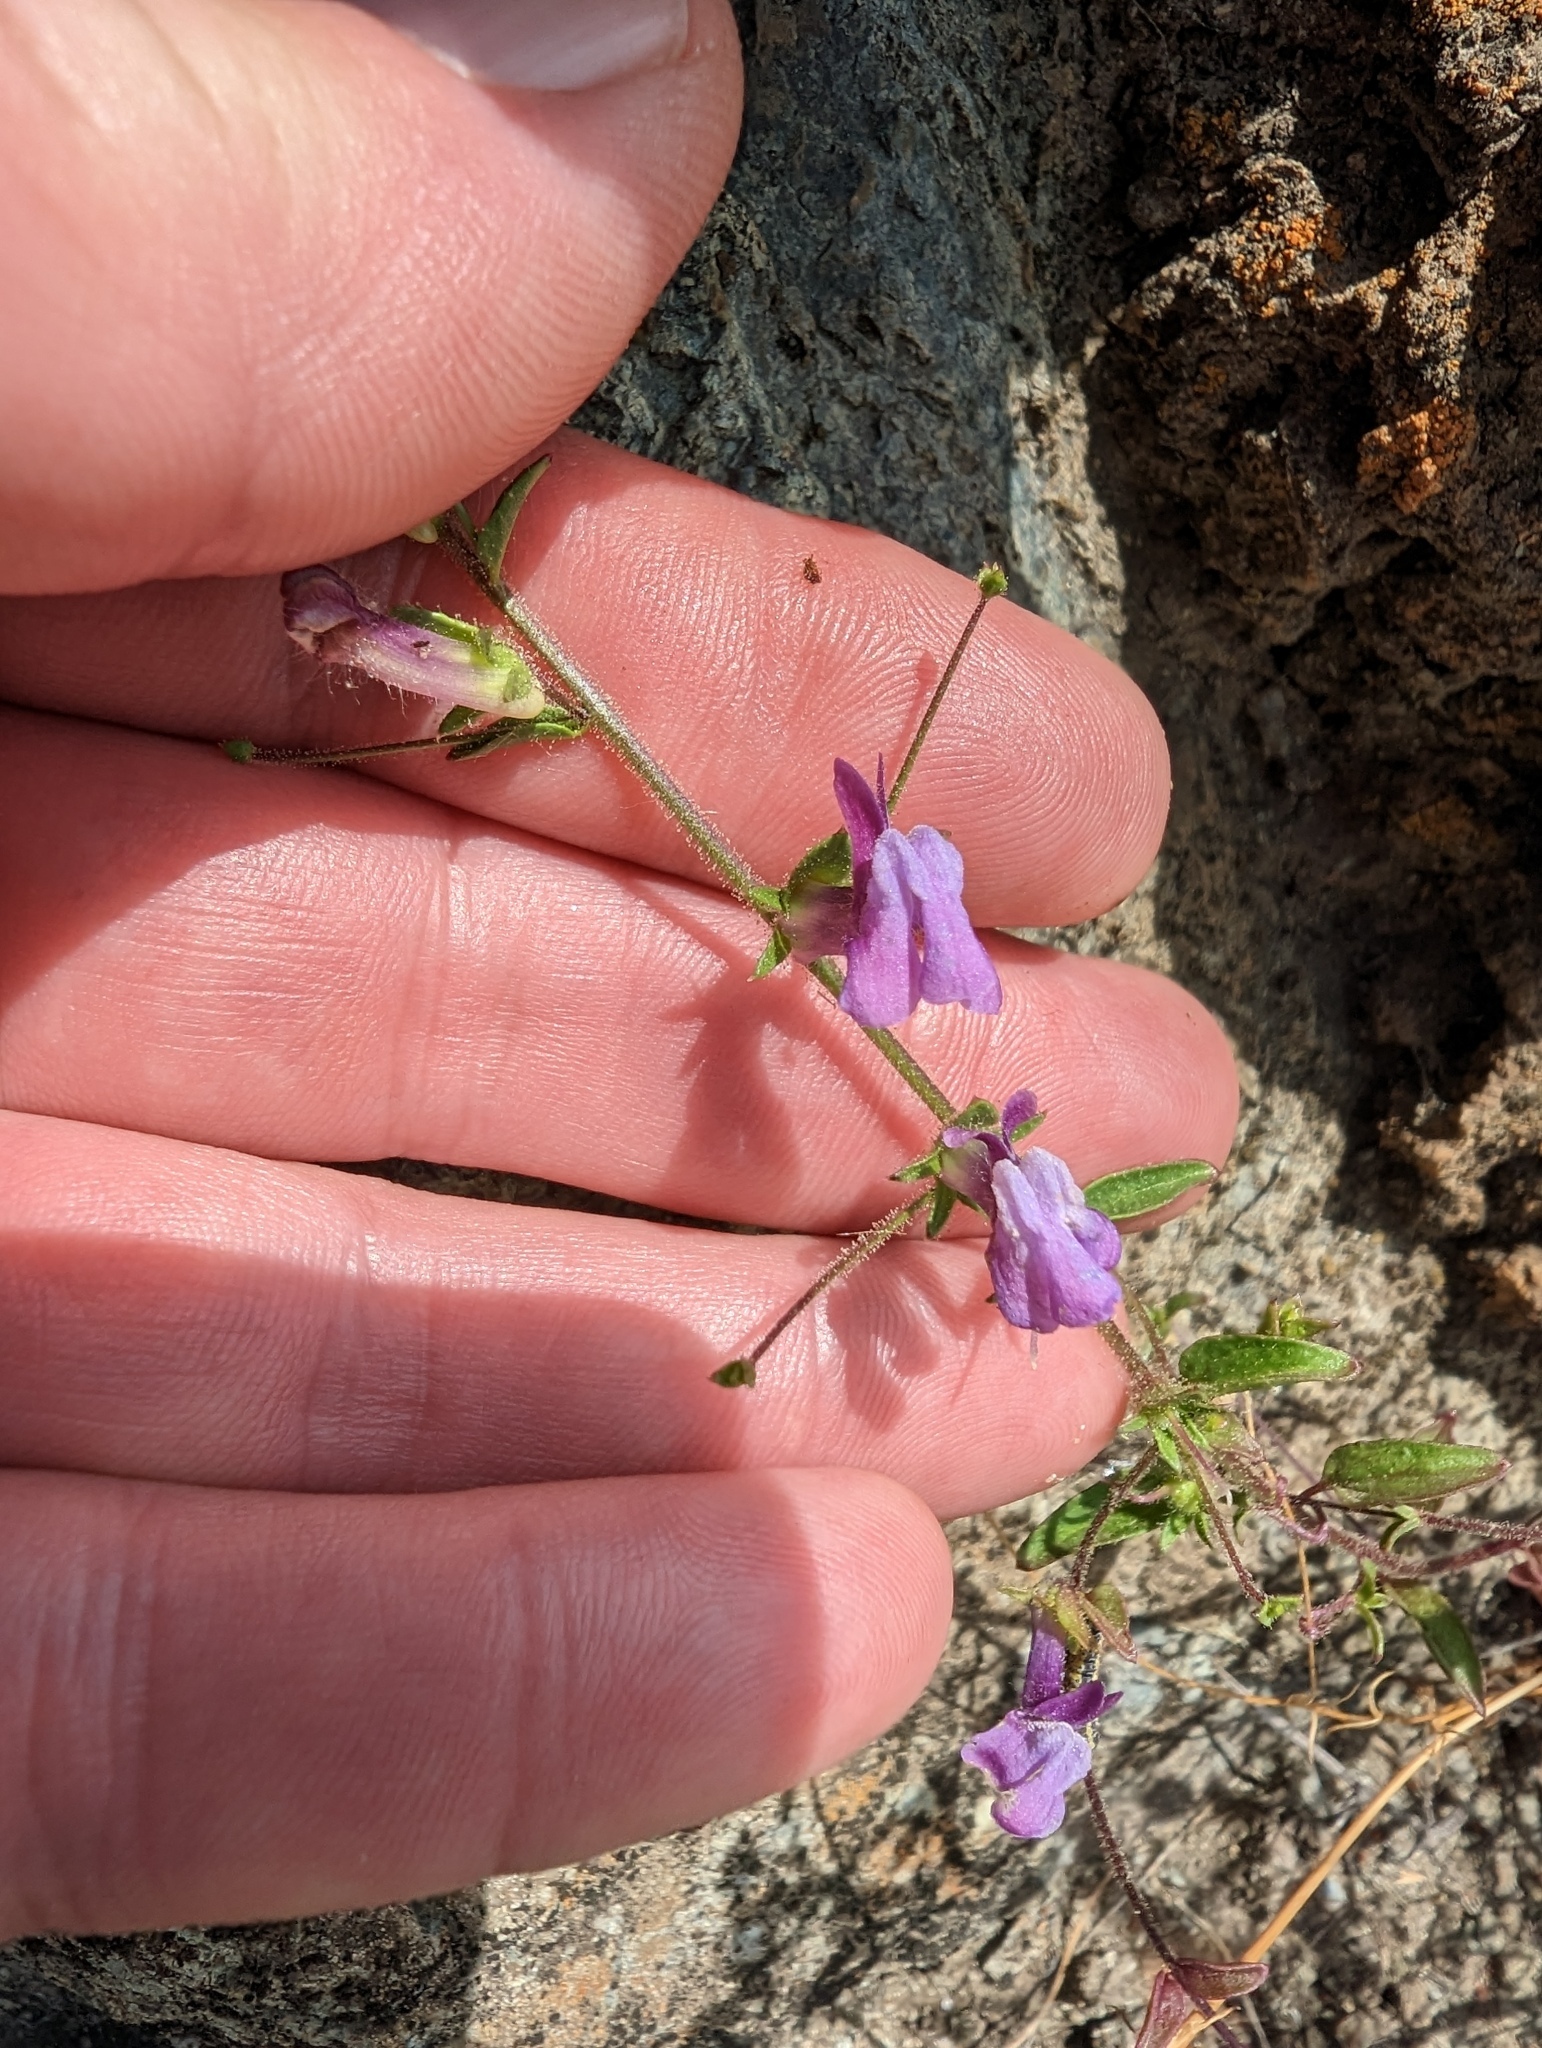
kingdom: Plantae
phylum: Tracheophyta
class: Magnoliopsida
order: Lamiales
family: Plantaginaceae
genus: Sairocarpus
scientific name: Sairocarpus vexillocalyculatus
